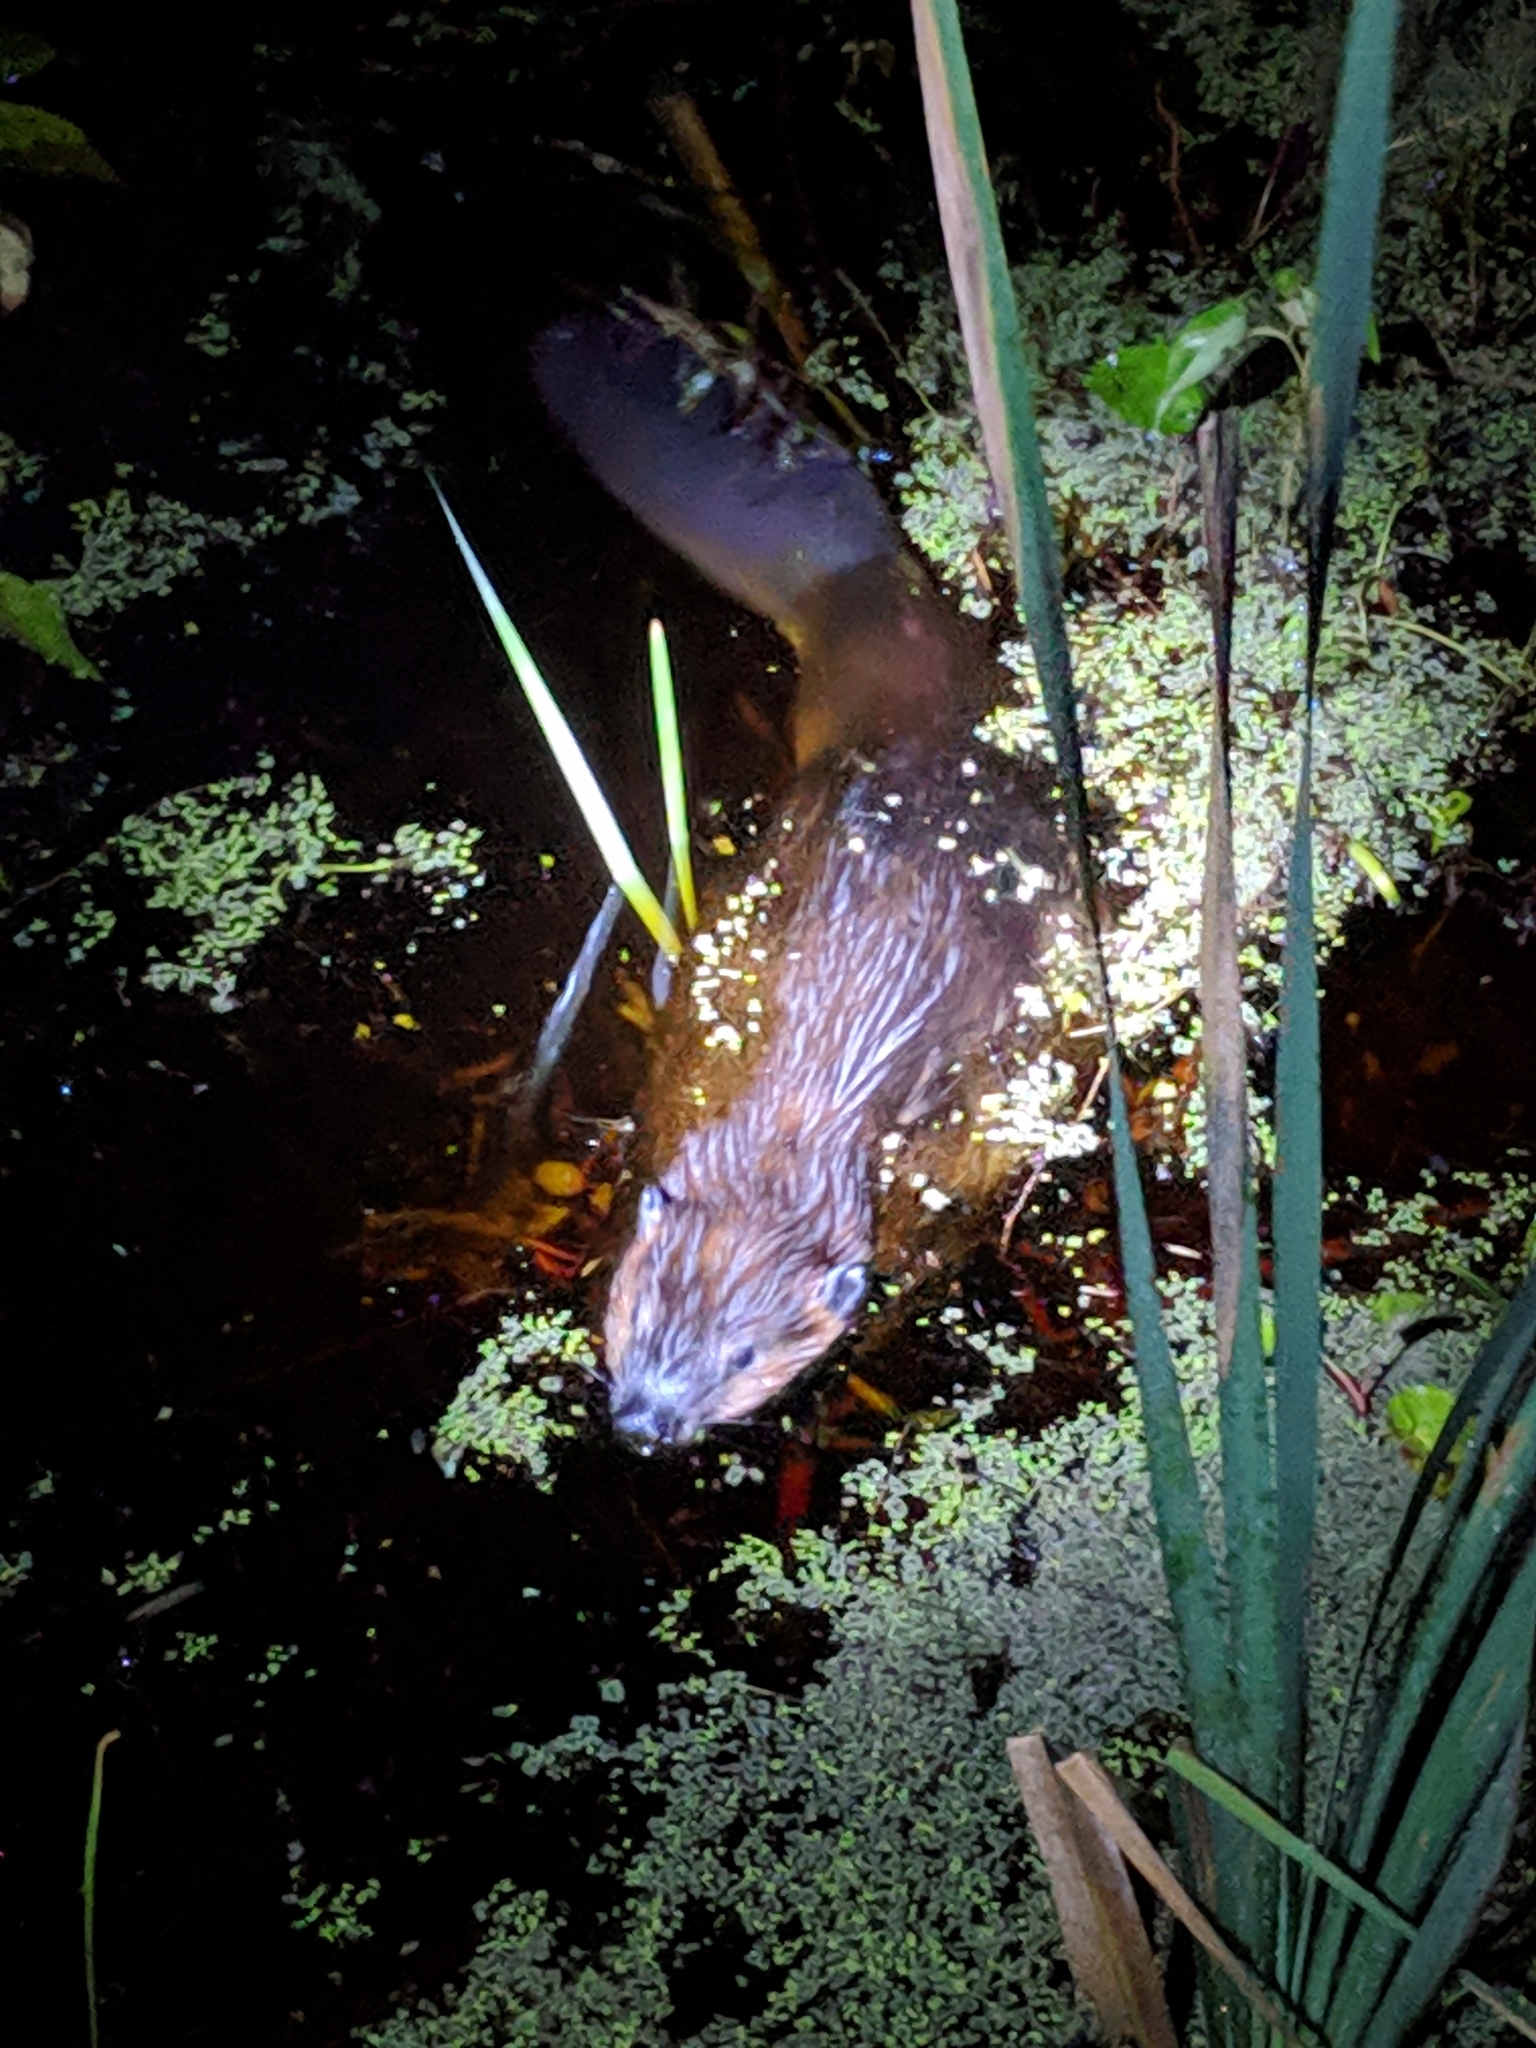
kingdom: Animalia
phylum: Chordata
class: Mammalia
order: Rodentia
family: Castoridae
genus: Castor
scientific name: Castor canadensis
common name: American beaver
